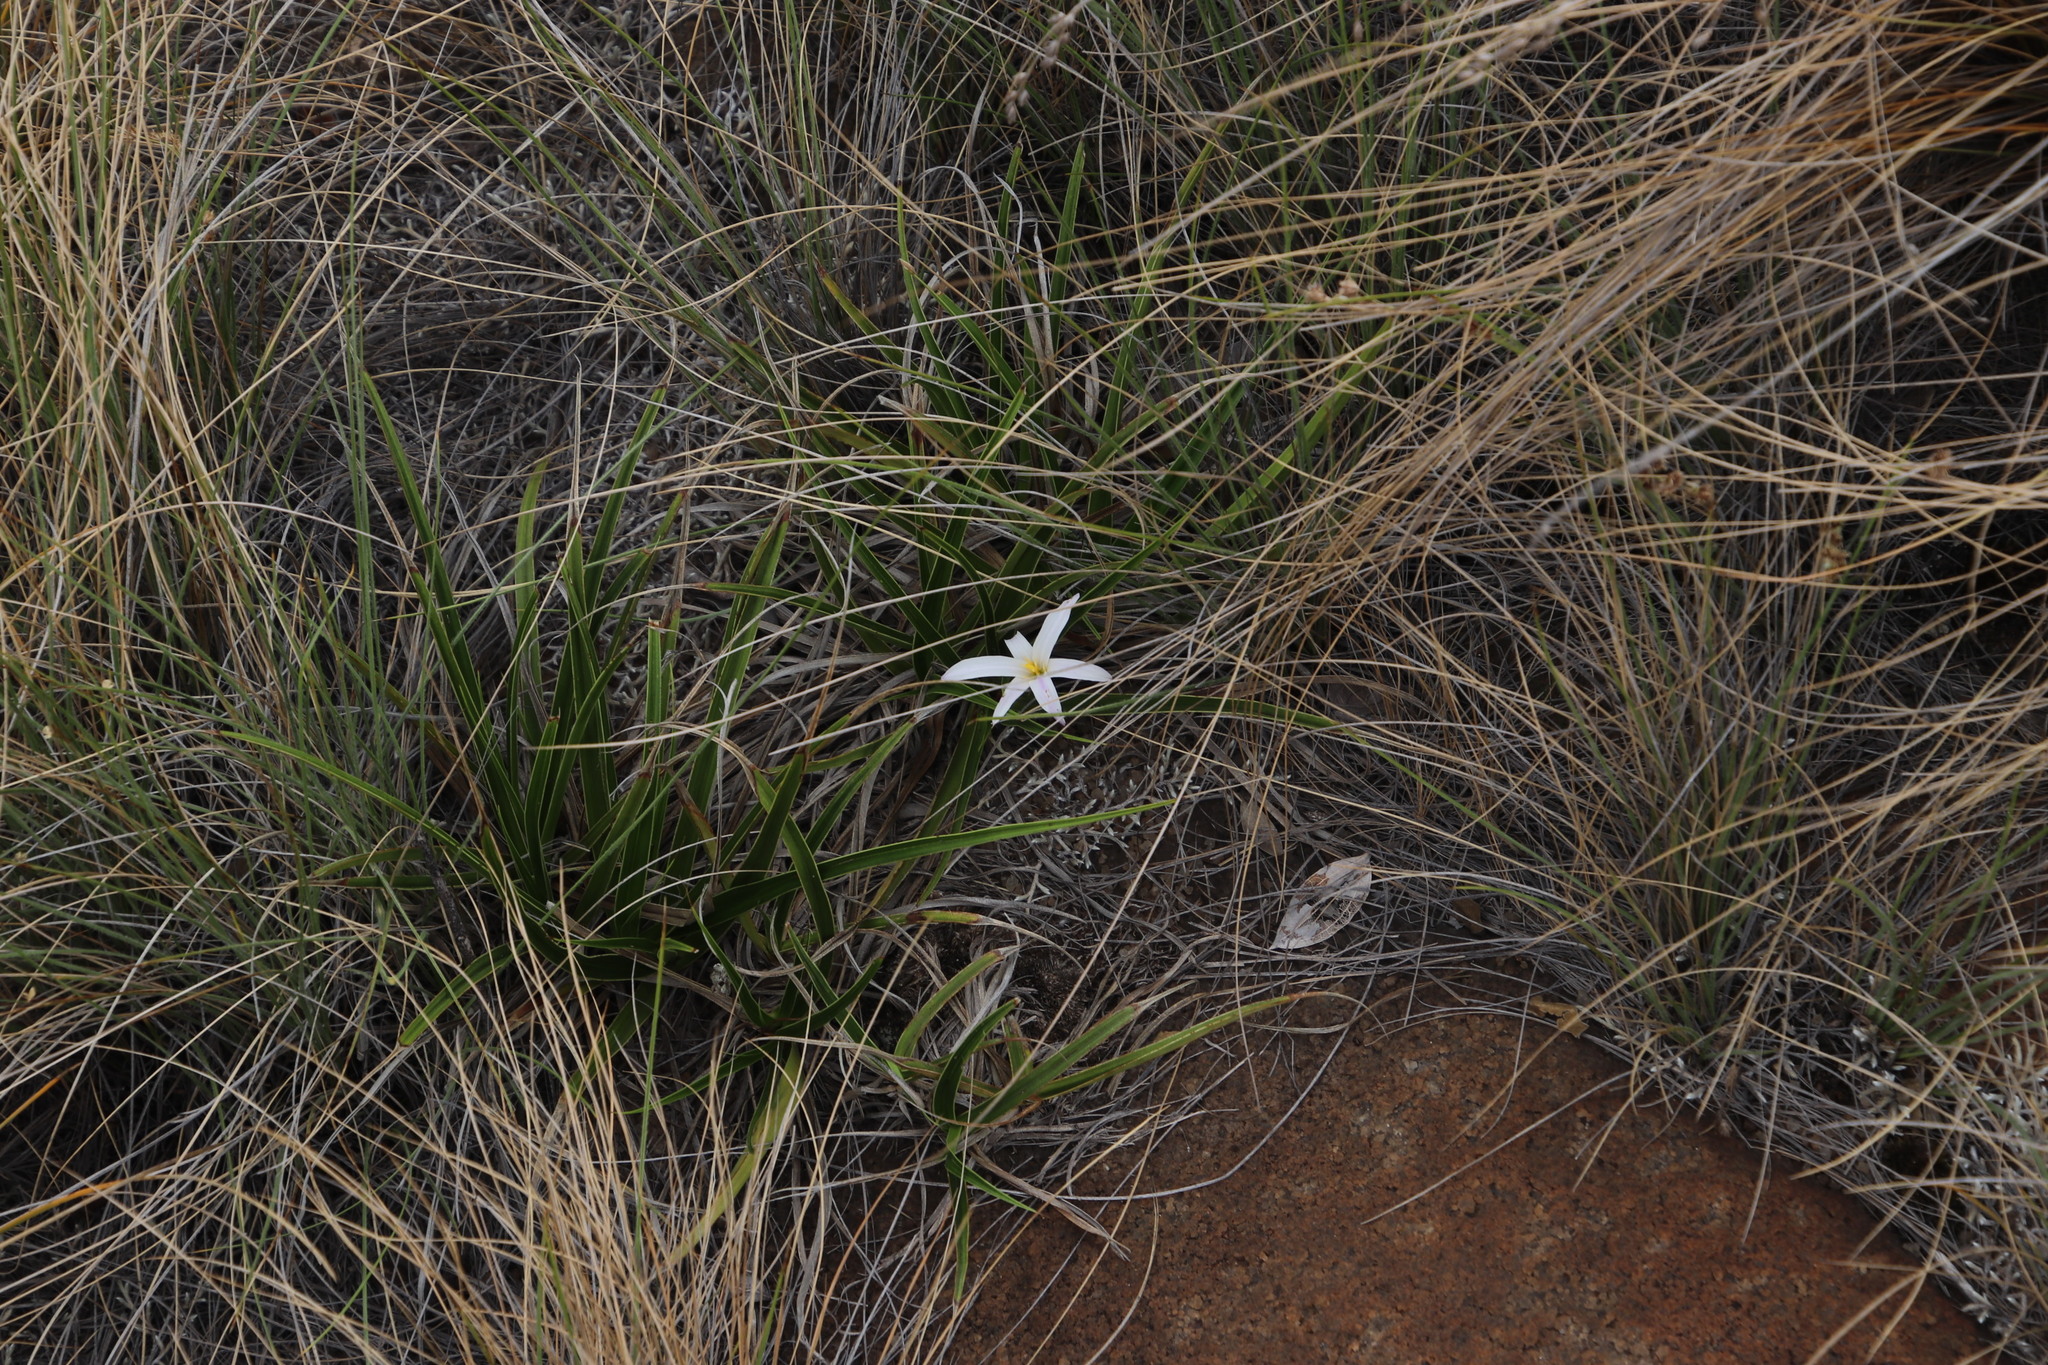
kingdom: Plantae
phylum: Tracheophyta
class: Liliopsida
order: Pandanales
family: Velloziaceae
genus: Xerophyta
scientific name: Xerophyta adendorffii
